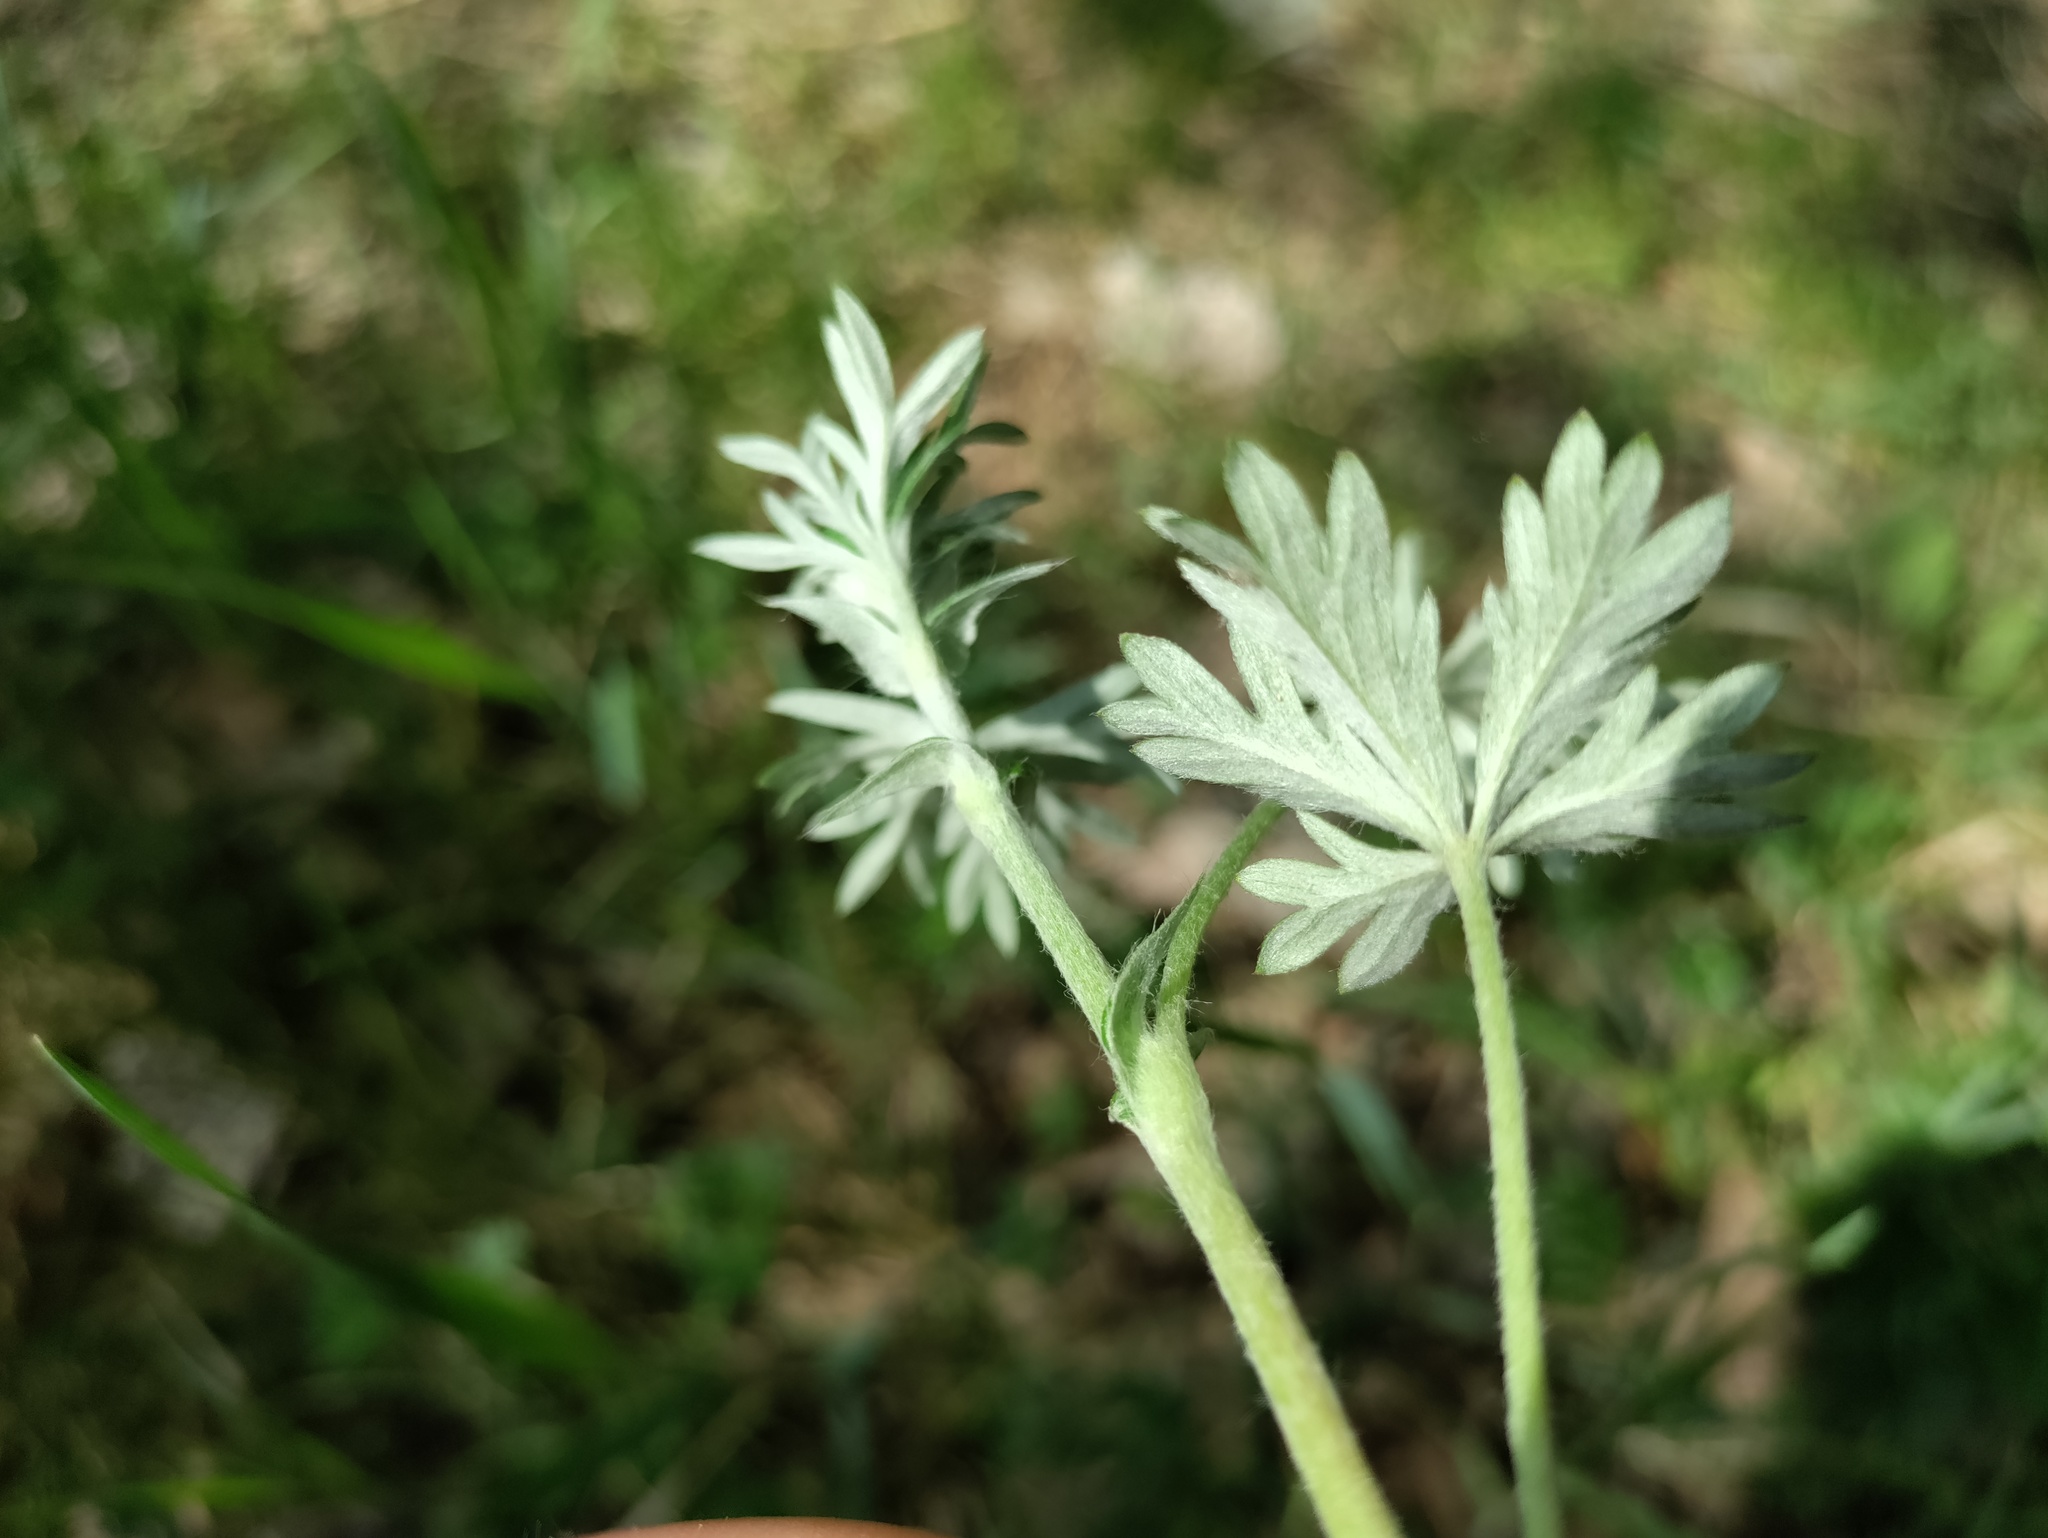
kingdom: Plantae
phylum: Tracheophyta
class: Magnoliopsida
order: Rosales
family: Rosaceae
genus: Potentilla
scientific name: Potentilla argentea
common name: Hoary cinquefoil
